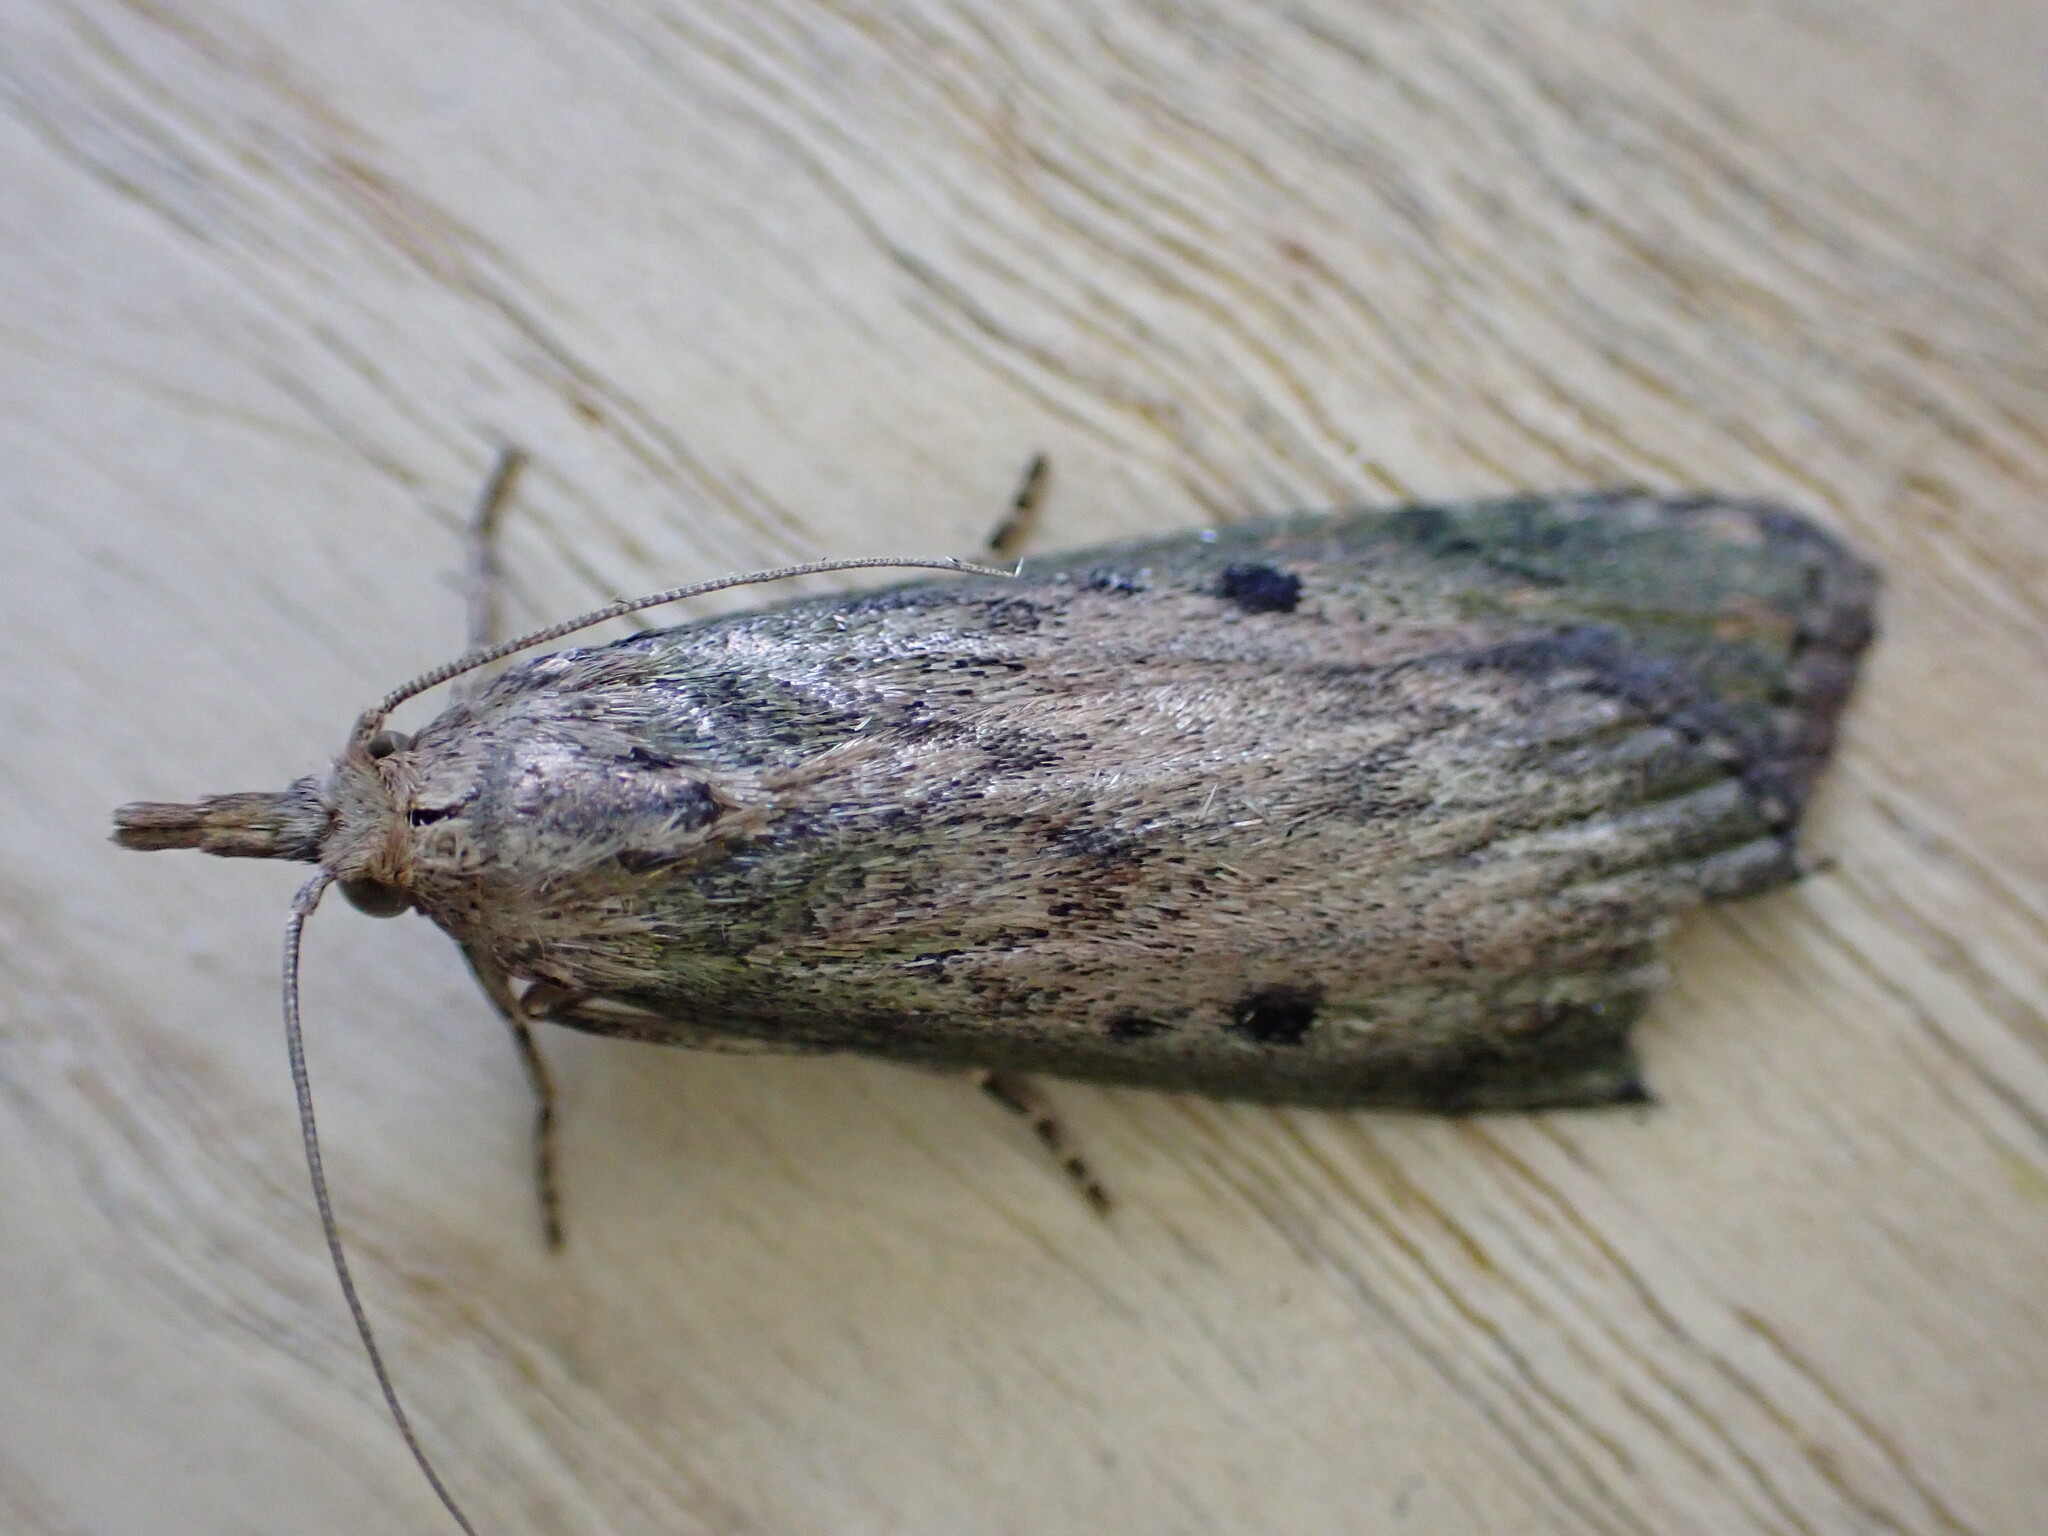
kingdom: Animalia
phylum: Arthropoda
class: Insecta
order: Lepidoptera
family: Pyralidae
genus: Aphomia
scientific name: Aphomia sociella
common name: Bee moth
